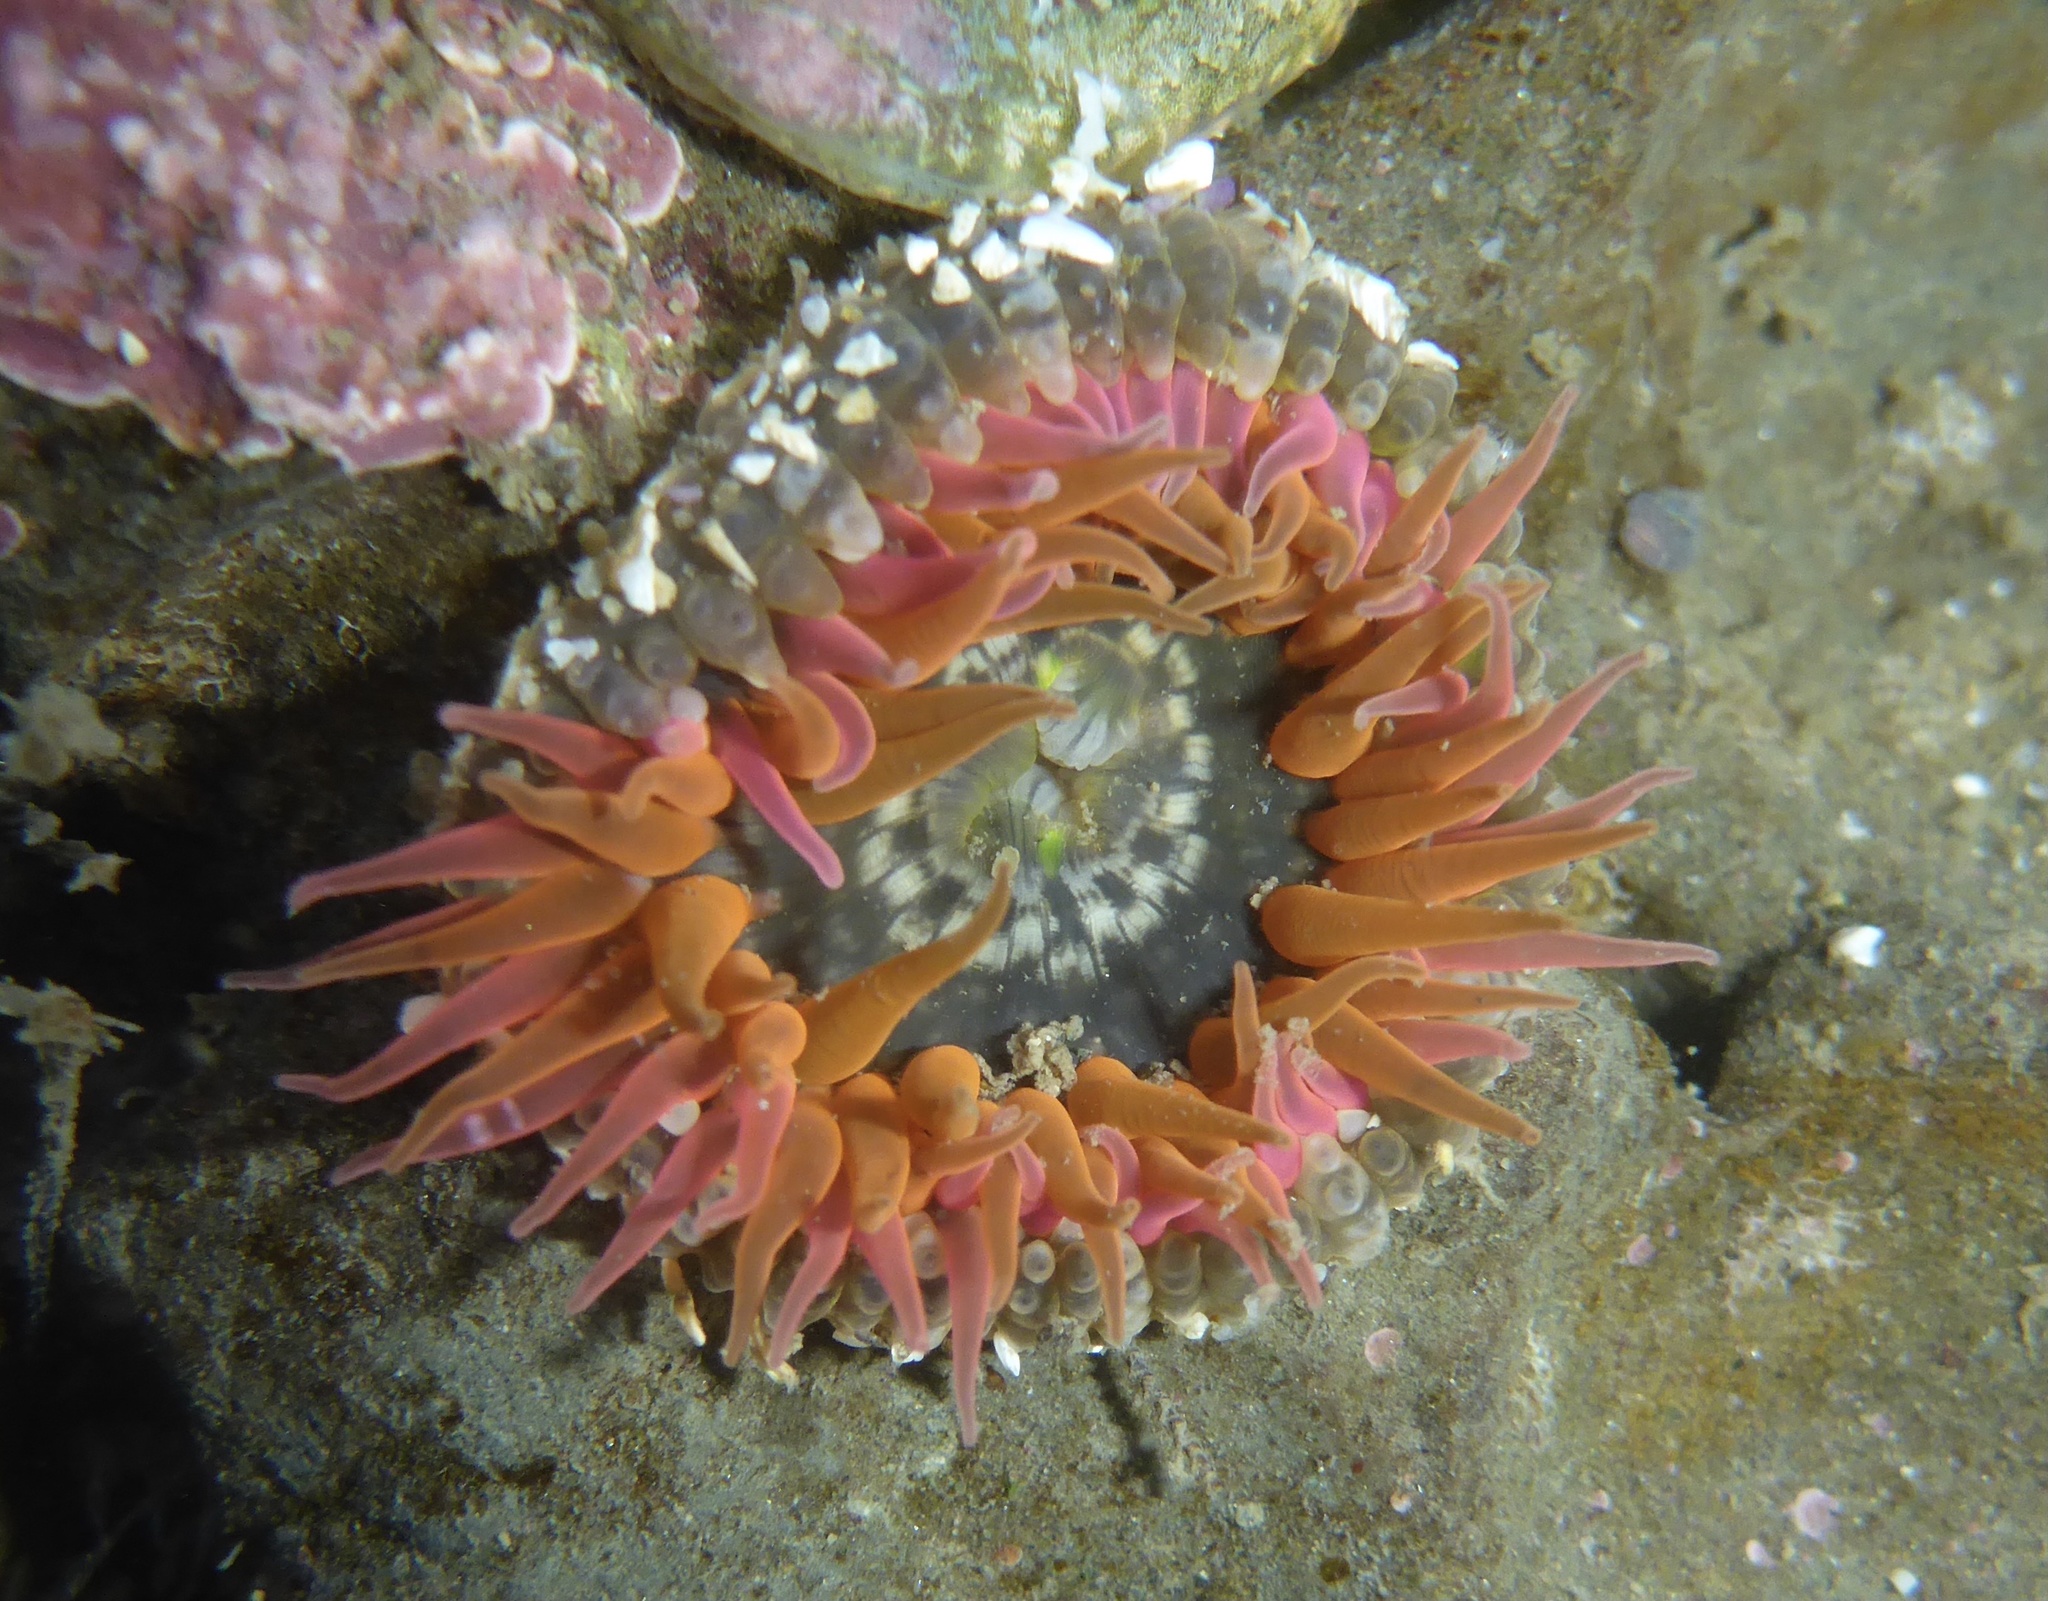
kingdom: Animalia
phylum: Cnidaria
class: Anthozoa
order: Actiniaria
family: Actiniidae
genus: Anthopleura
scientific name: Anthopleura artemisia
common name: Buried sea anemone
